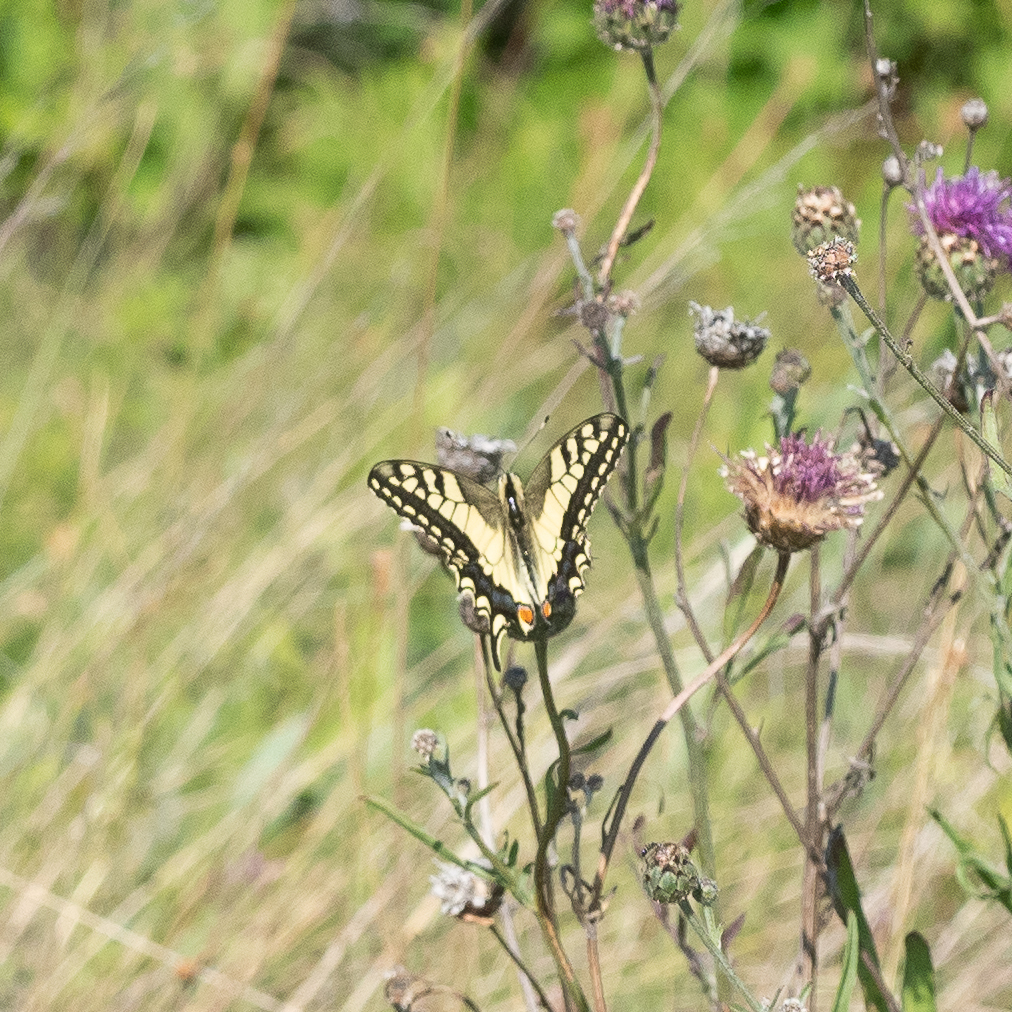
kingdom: Animalia
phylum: Arthropoda
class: Insecta
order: Lepidoptera
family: Papilionidae
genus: Papilio
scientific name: Papilio machaon
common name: Swallowtail
